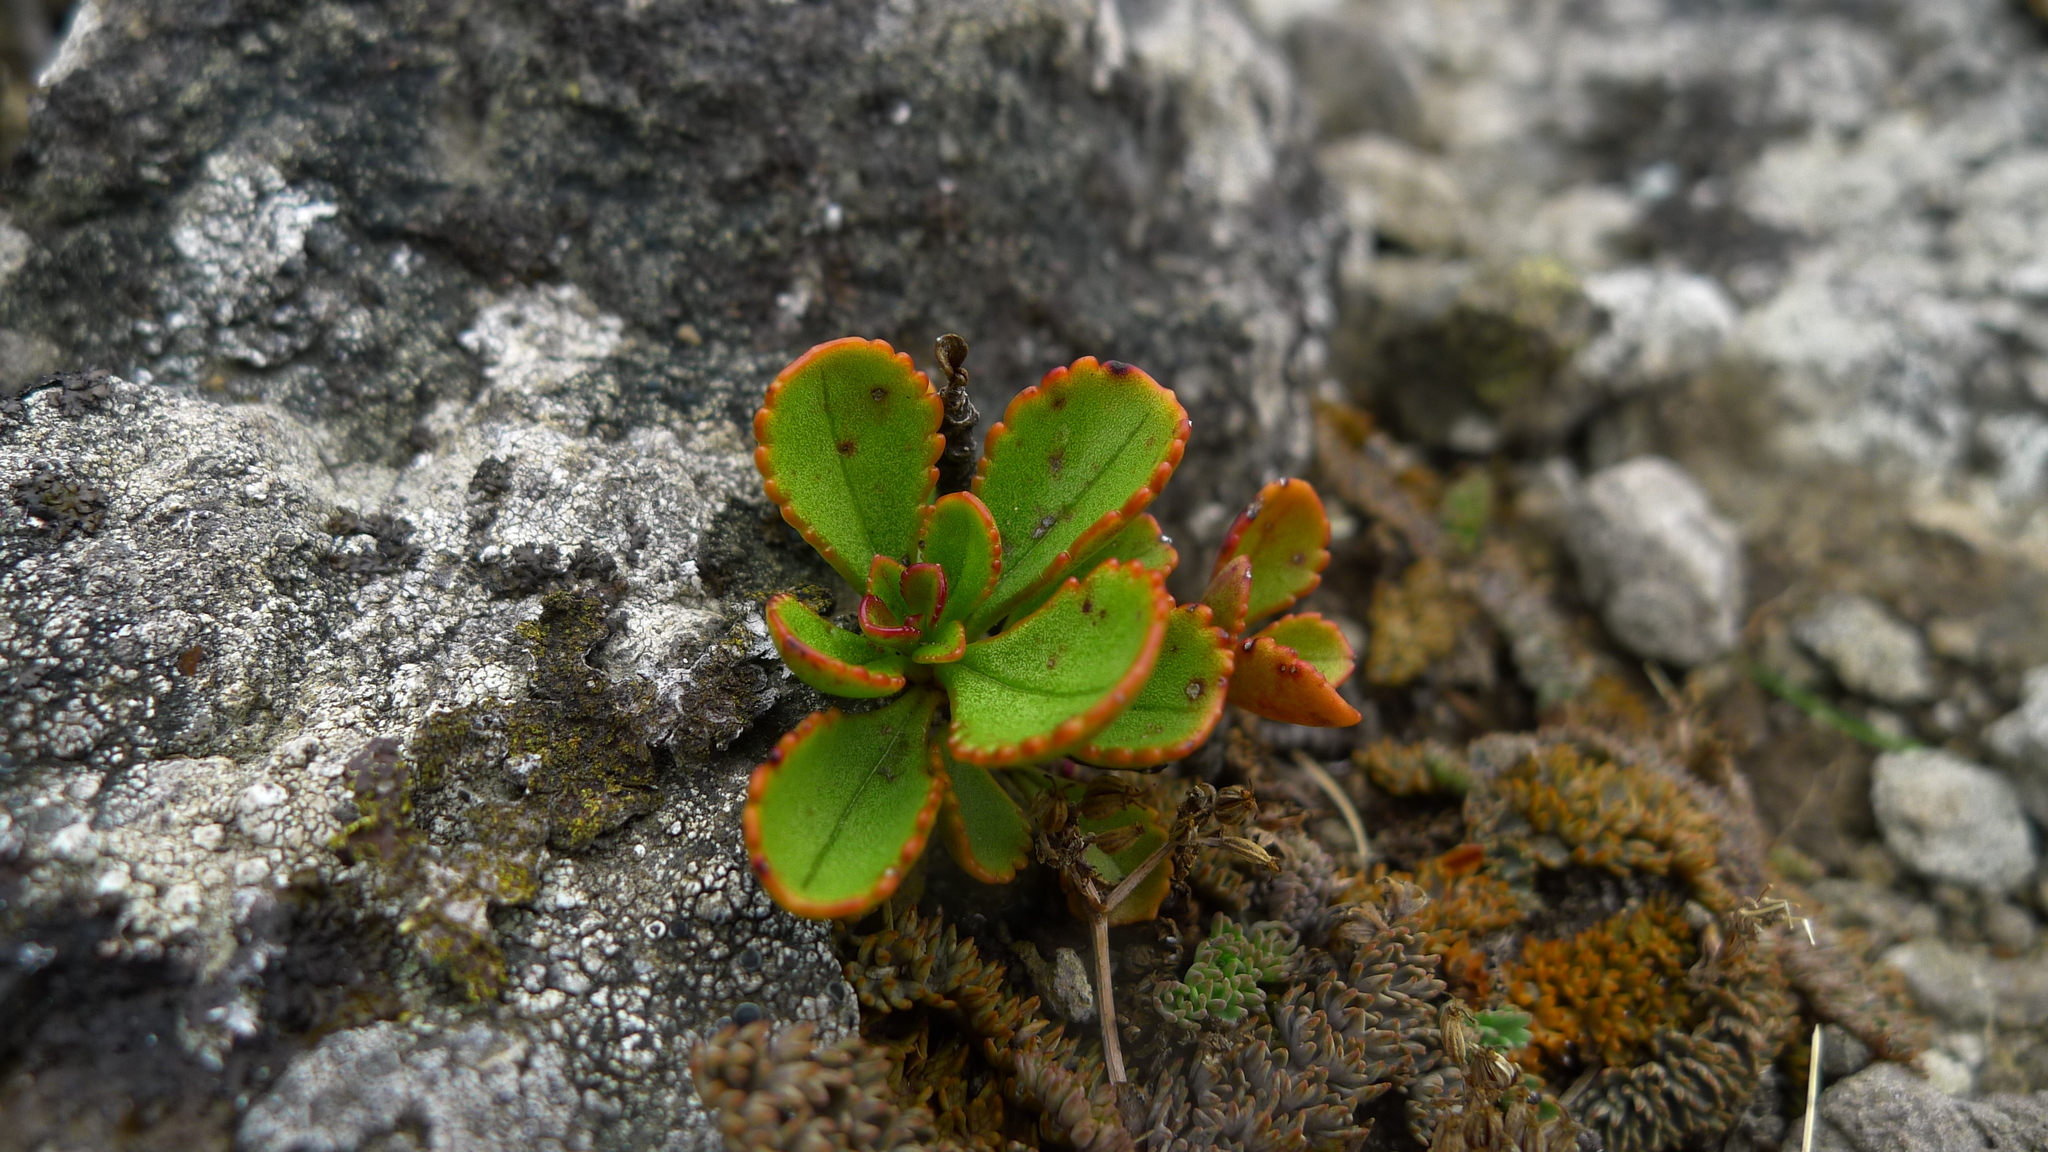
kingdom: Plantae
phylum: Tracheophyta
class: Magnoliopsida
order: Lamiales
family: Plantaginaceae
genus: Veronica
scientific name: Veronica lavaudiana
